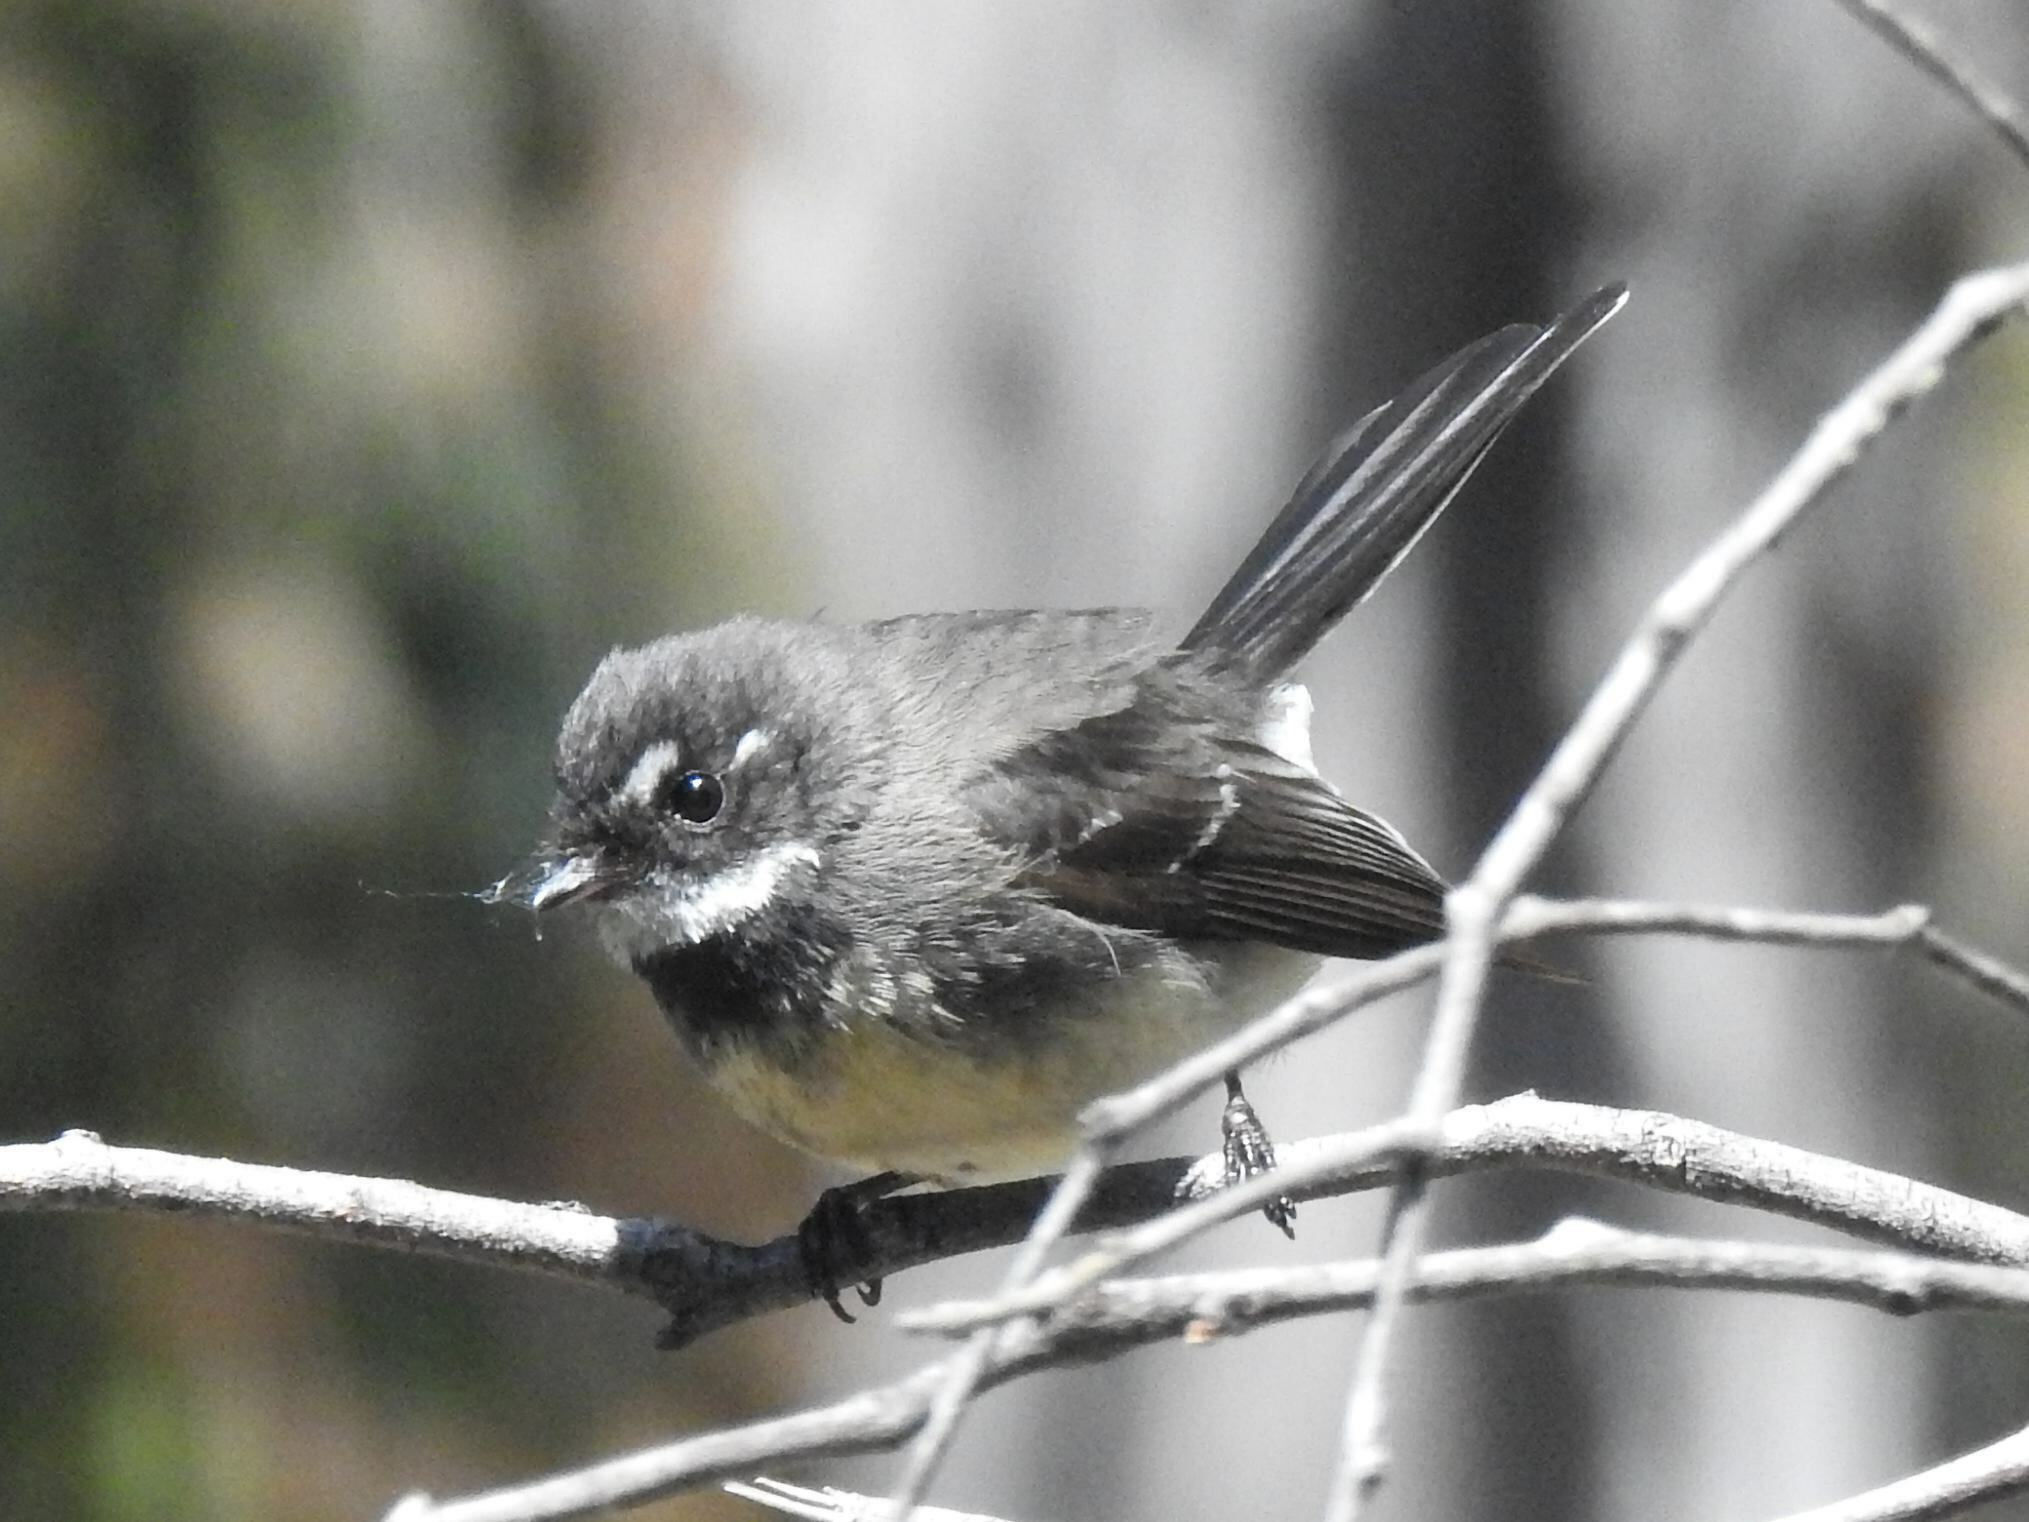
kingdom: Animalia
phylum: Chordata
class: Aves
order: Passeriformes
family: Rhipiduridae
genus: Rhipidura
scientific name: Rhipidura albiscapa
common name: Grey fantail
